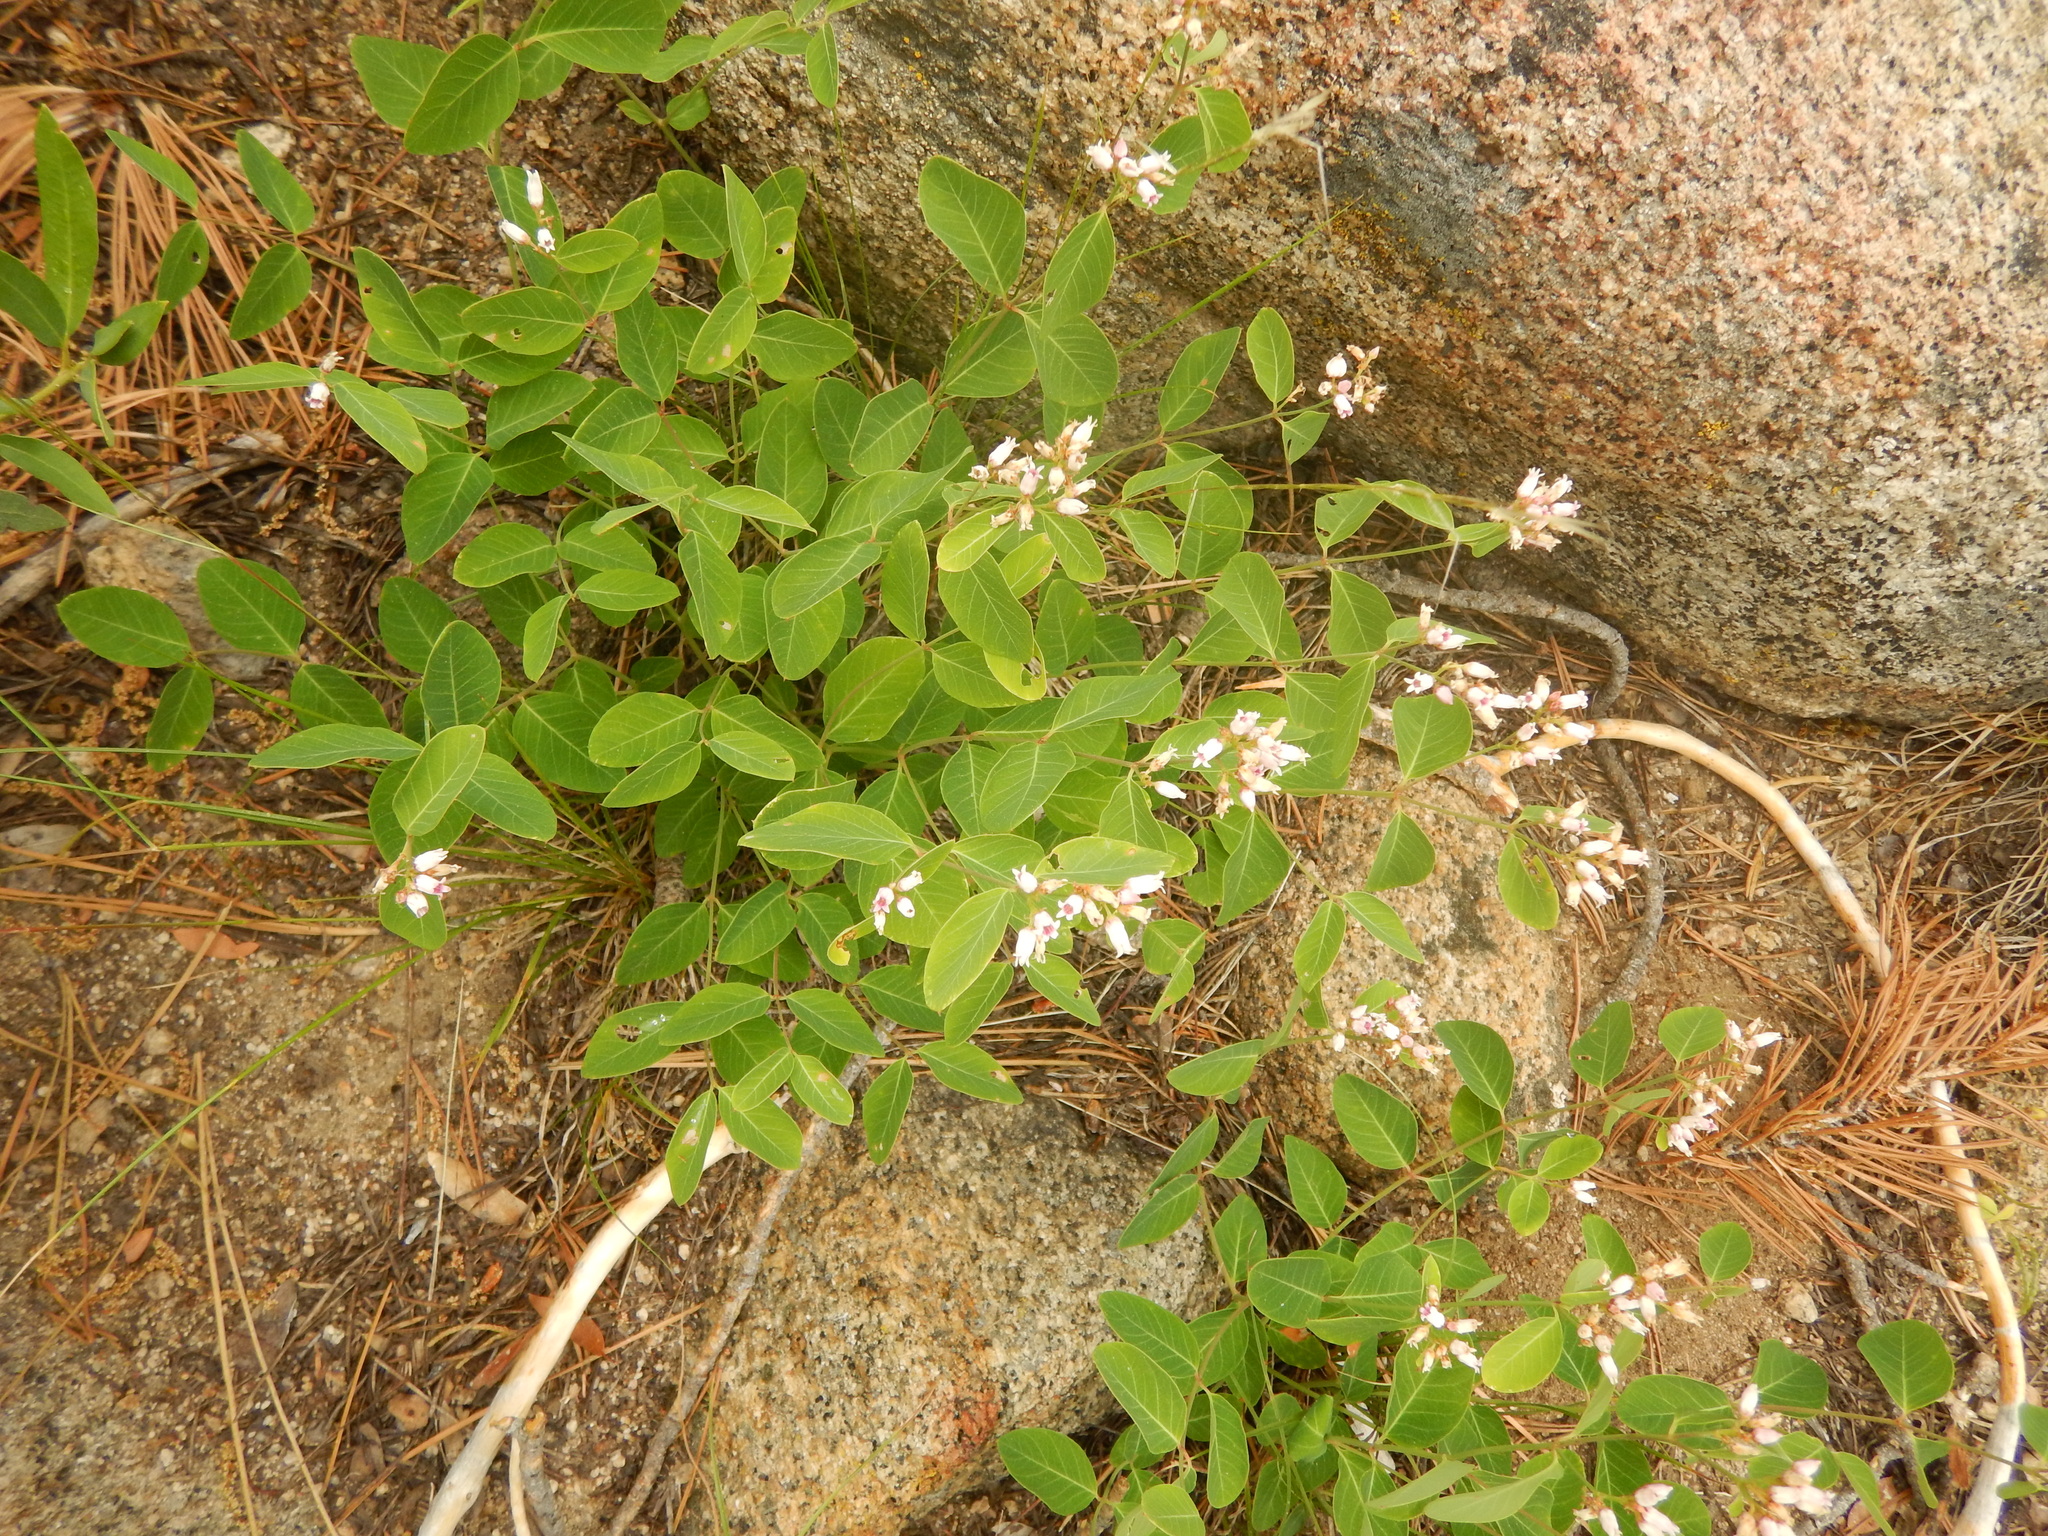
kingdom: Plantae
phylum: Tracheophyta
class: Magnoliopsida
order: Gentianales
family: Apocynaceae
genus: Apocynum
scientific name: Apocynum androsaemifolium
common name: Spreading dogbane
